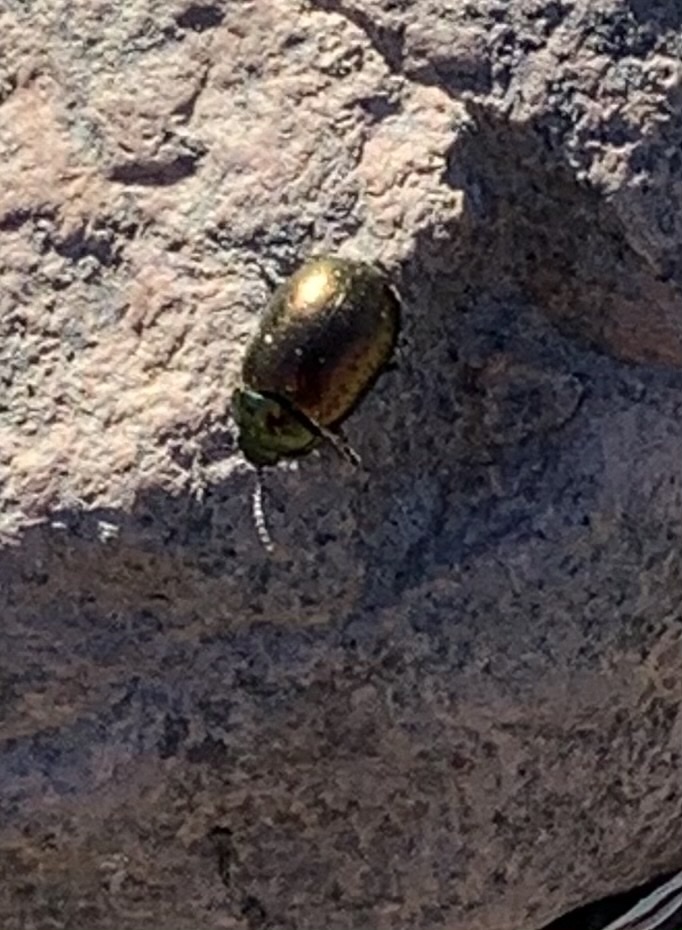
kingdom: Animalia
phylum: Arthropoda
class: Insecta
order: Coleoptera
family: Chrysomelidae
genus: Chrysolina
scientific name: Chrysolina hyperici
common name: St. johnswort beetle
